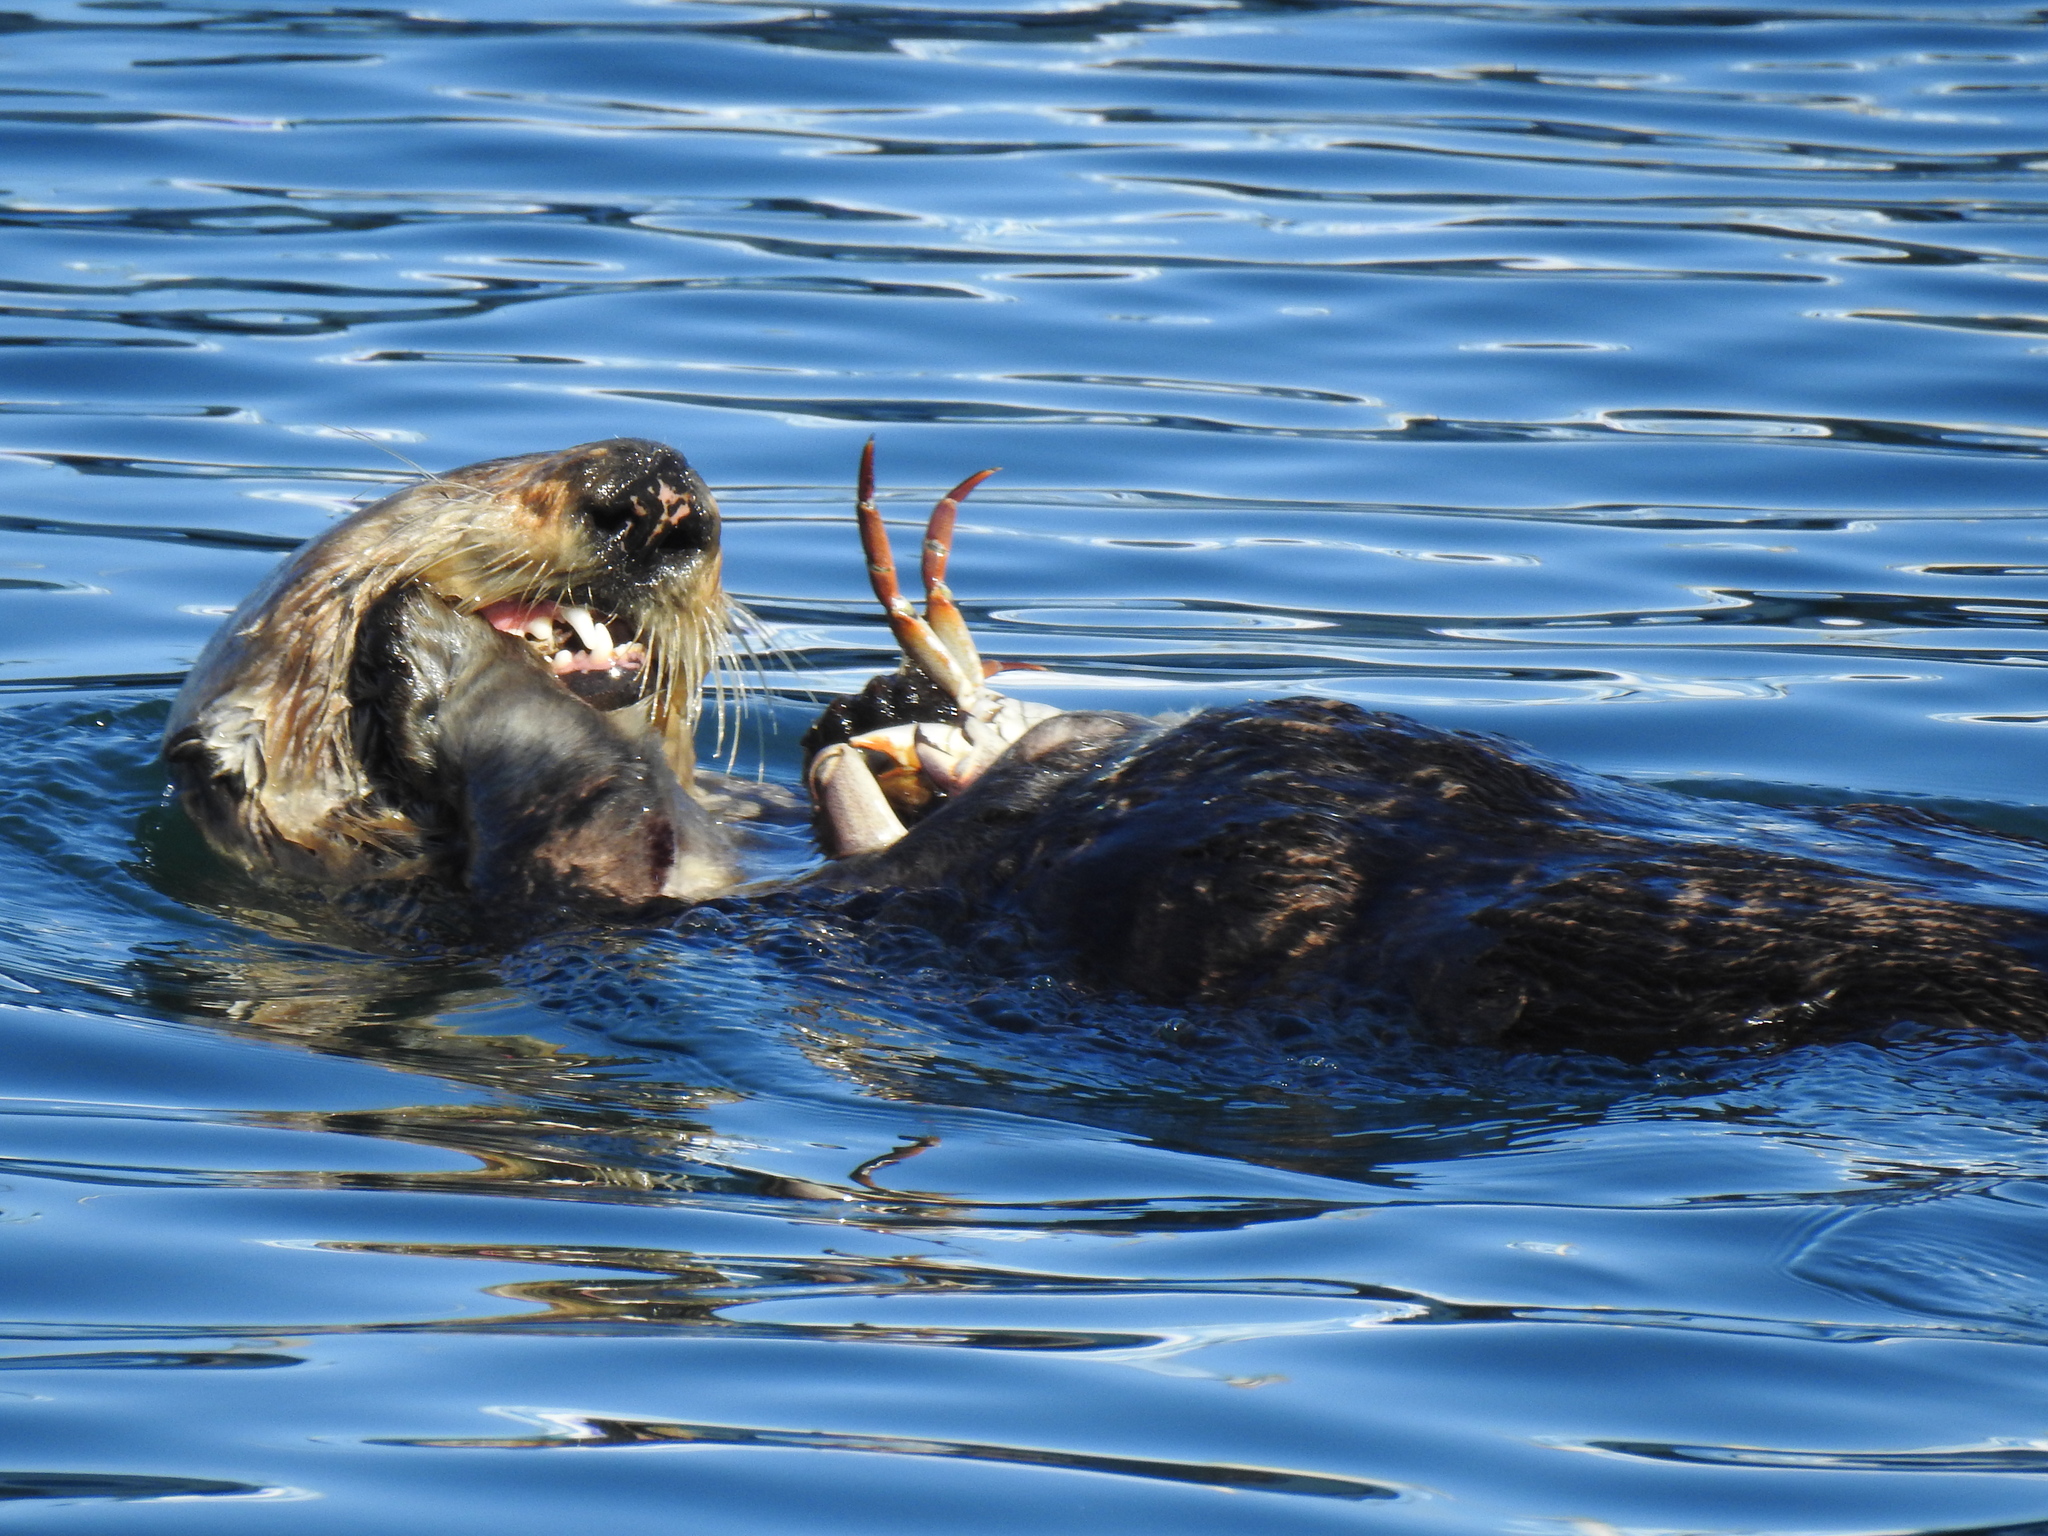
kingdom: Animalia
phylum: Chordata
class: Mammalia
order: Carnivora
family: Mustelidae
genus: Enhydra
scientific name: Enhydra lutris
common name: Sea otter
